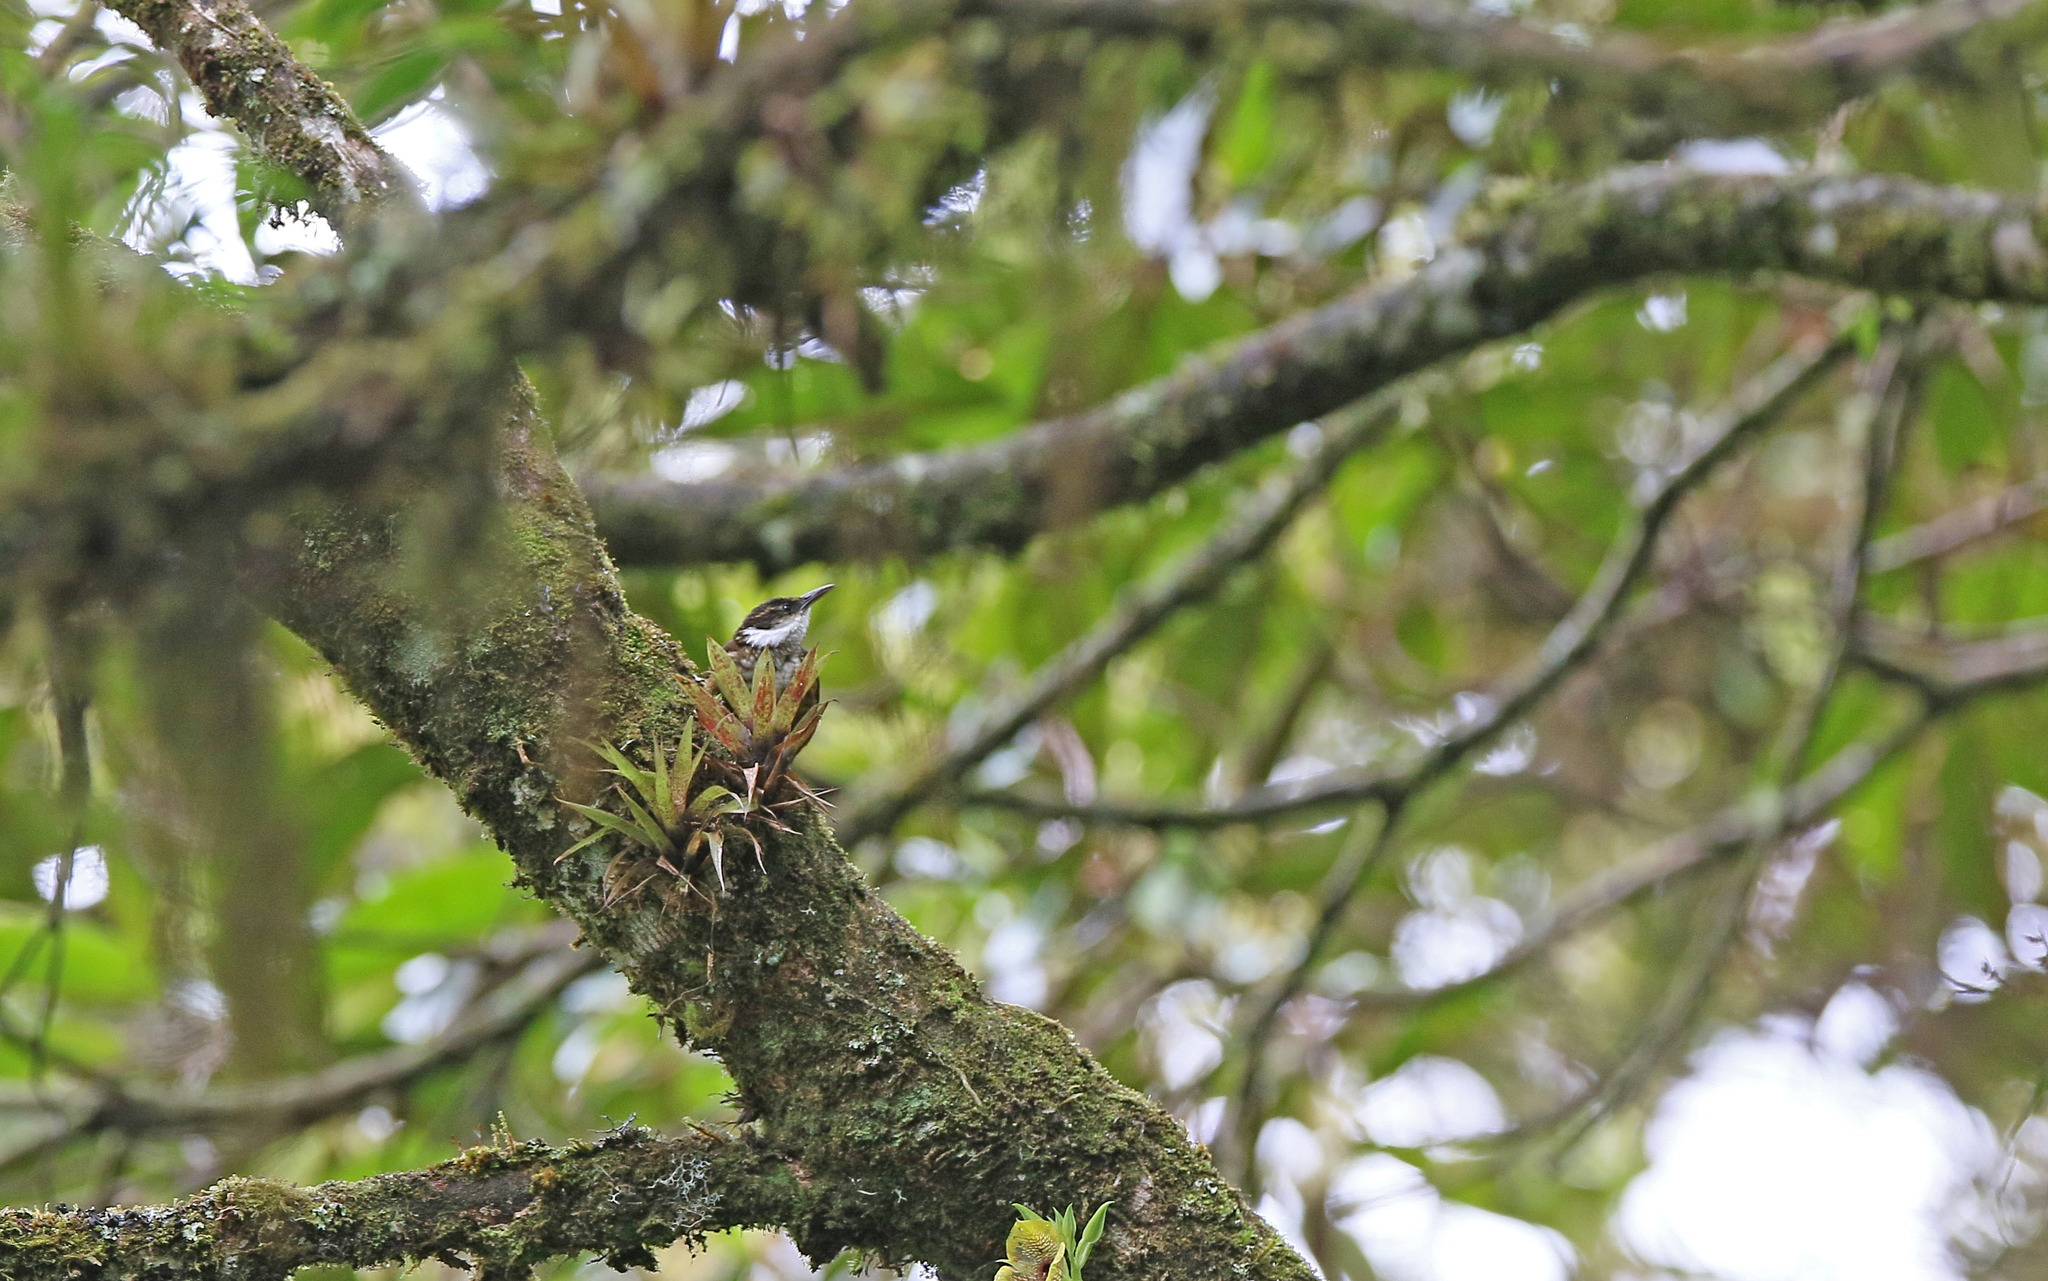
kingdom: Animalia
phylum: Chordata
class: Aves
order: Passeriformes
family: Furnariidae
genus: Pseudocolaptes
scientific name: Pseudocolaptes boissonneautii
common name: Streaked tuftedcheek
